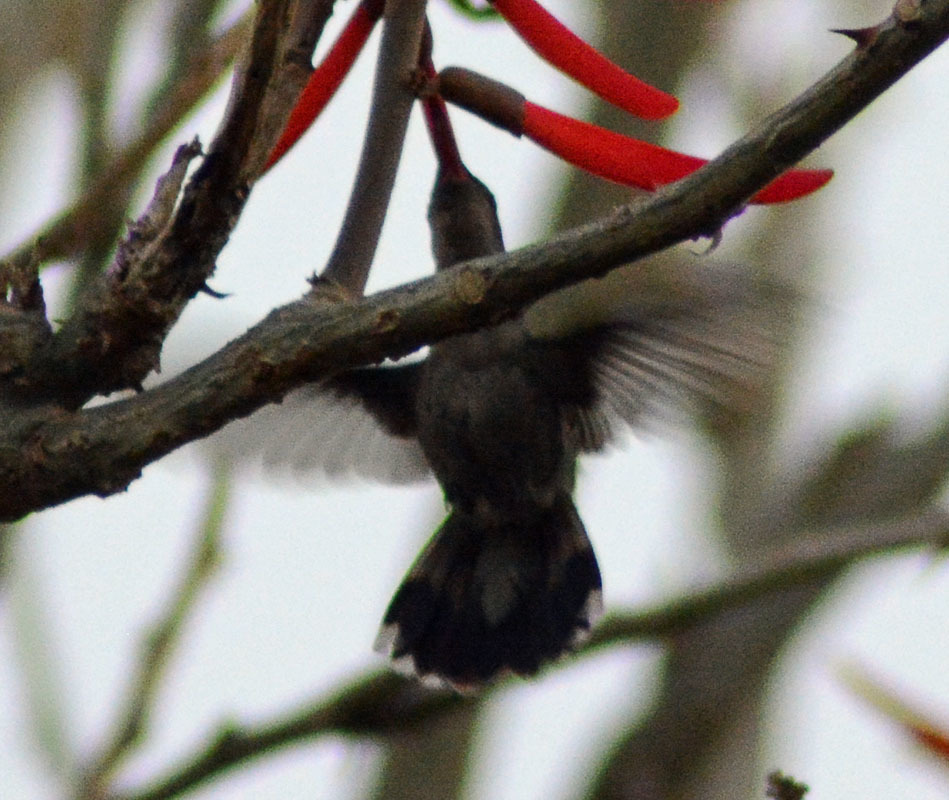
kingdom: Animalia
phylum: Chordata
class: Aves
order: Apodiformes
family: Trochilidae
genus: Cynanthus
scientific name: Cynanthus latirostris
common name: Broad-billed hummingbird
